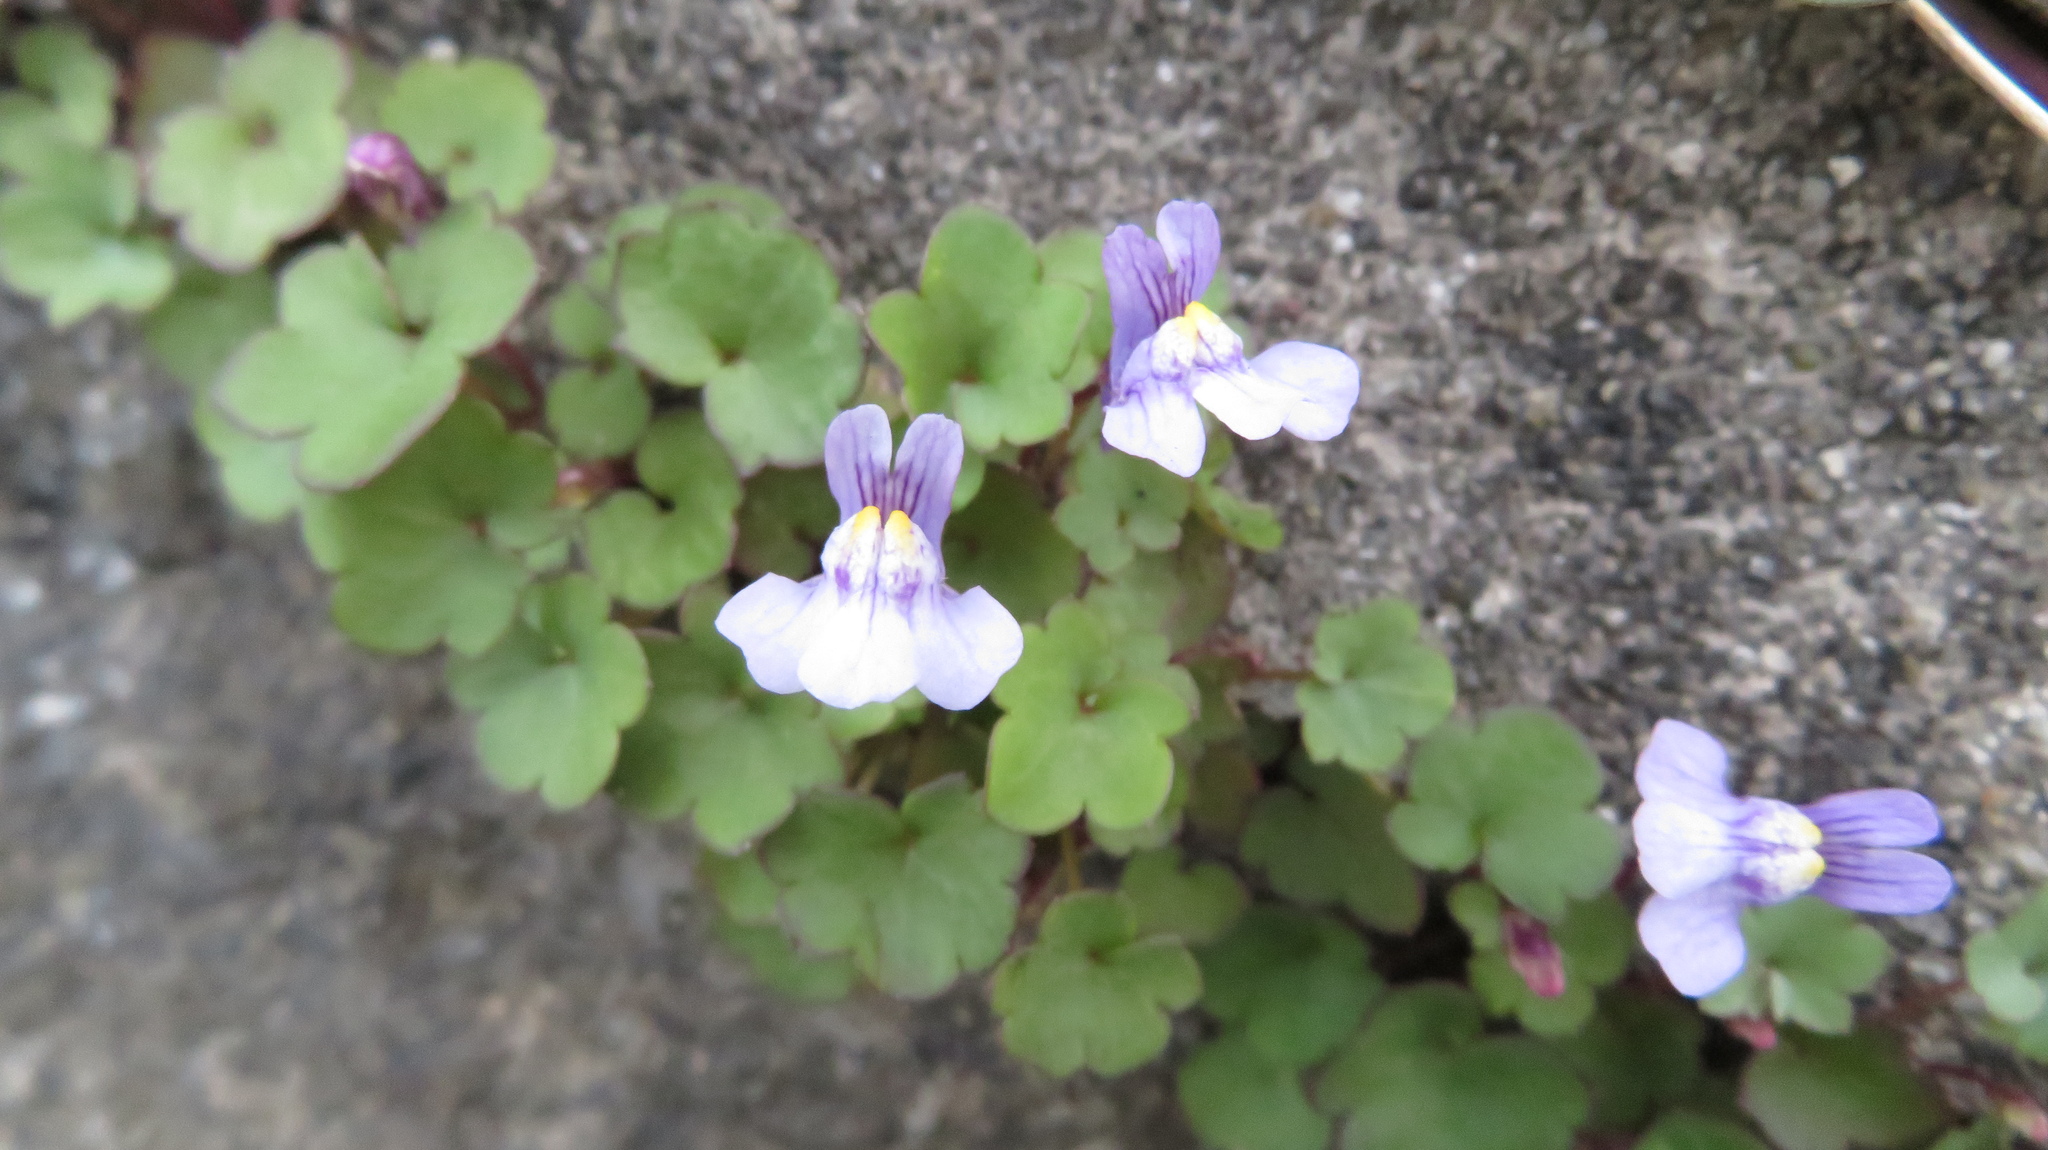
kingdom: Plantae
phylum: Tracheophyta
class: Magnoliopsida
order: Lamiales
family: Plantaginaceae
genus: Cymbalaria
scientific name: Cymbalaria muralis
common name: Ivy-leaved toadflax
